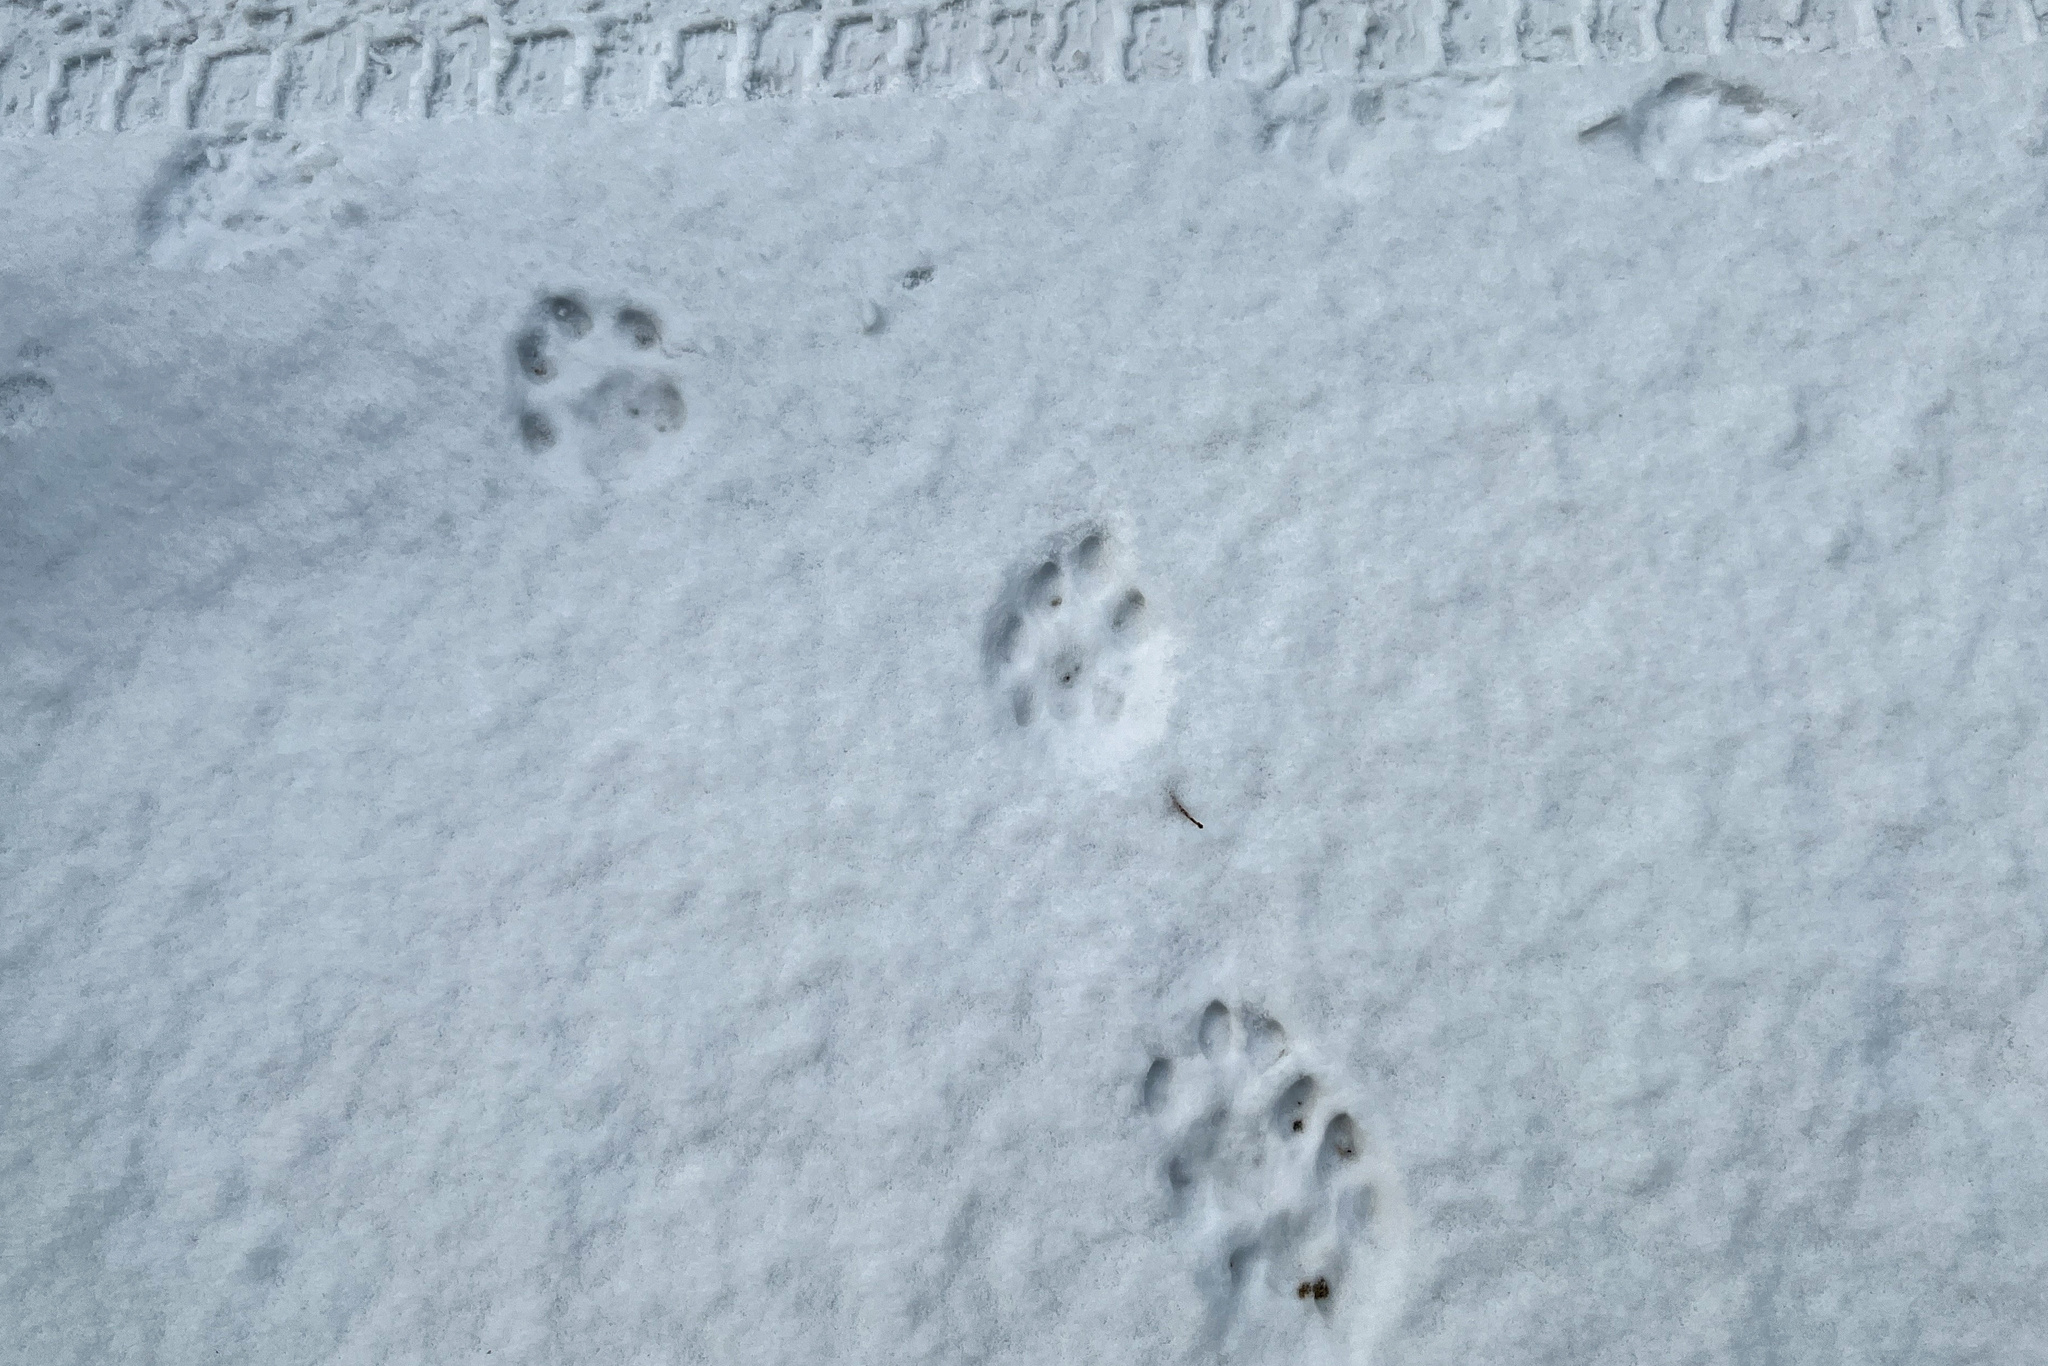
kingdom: Animalia
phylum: Chordata
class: Mammalia
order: Carnivora
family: Felidae
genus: Lynx
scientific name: Lynx lynx
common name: Eurasian lynx
